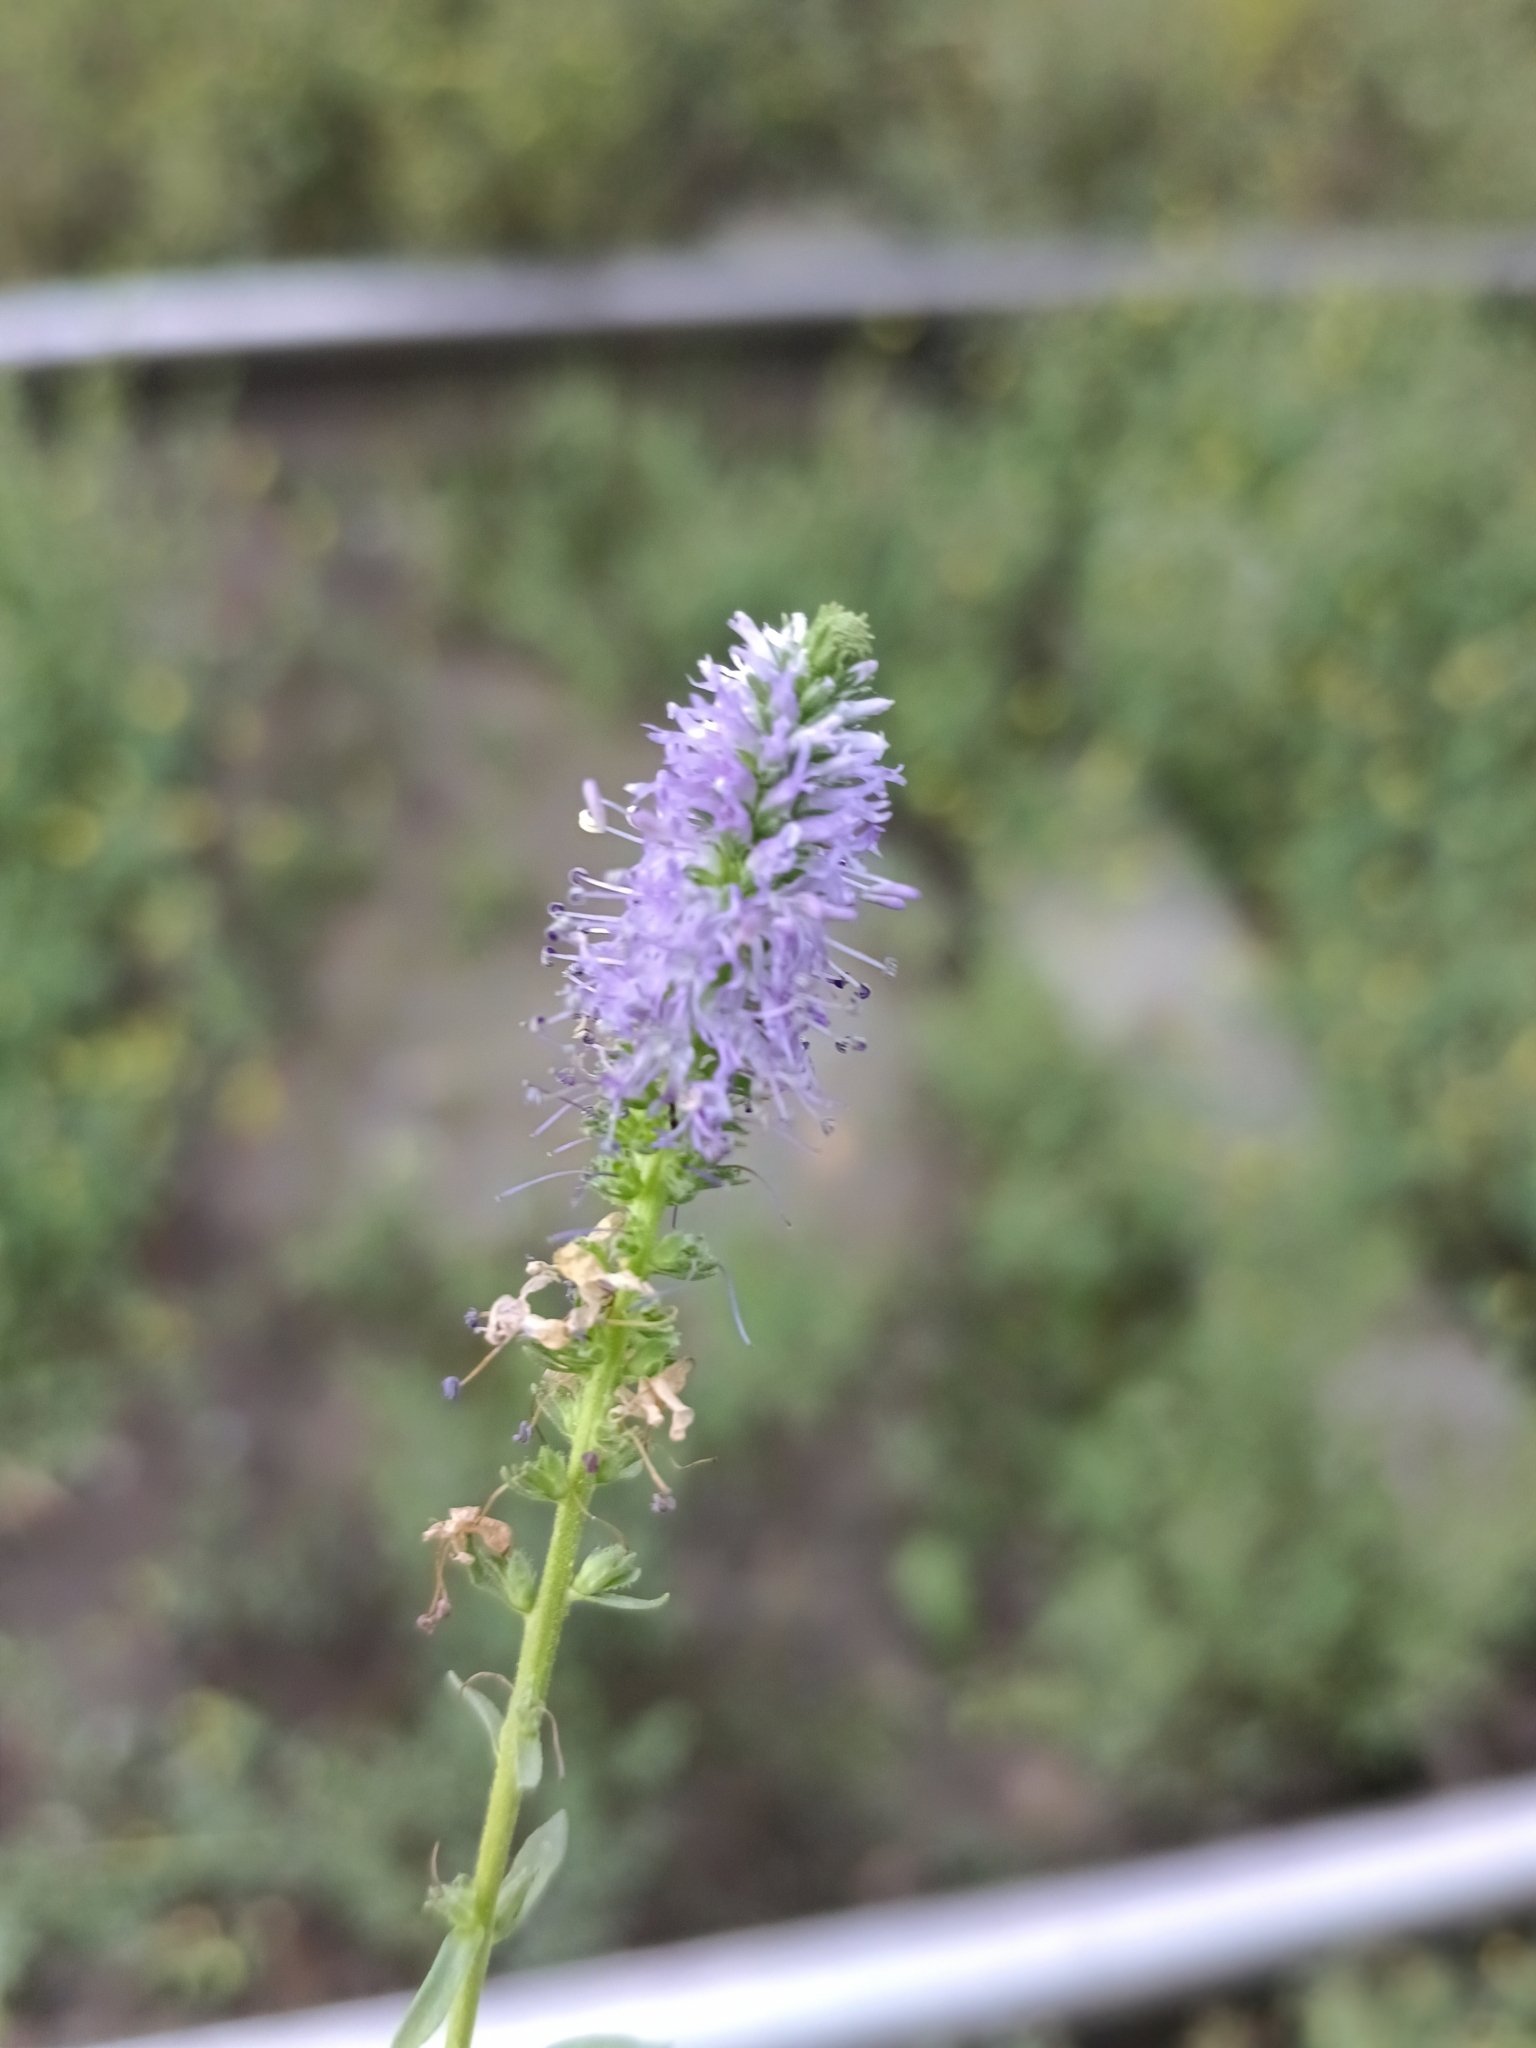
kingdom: Plantae
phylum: Tracheophyta
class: Magnoliopsida
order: Lamiales
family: Plantaginaceae
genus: Veronica
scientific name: Veronica spicata
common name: Spiked speedwell
